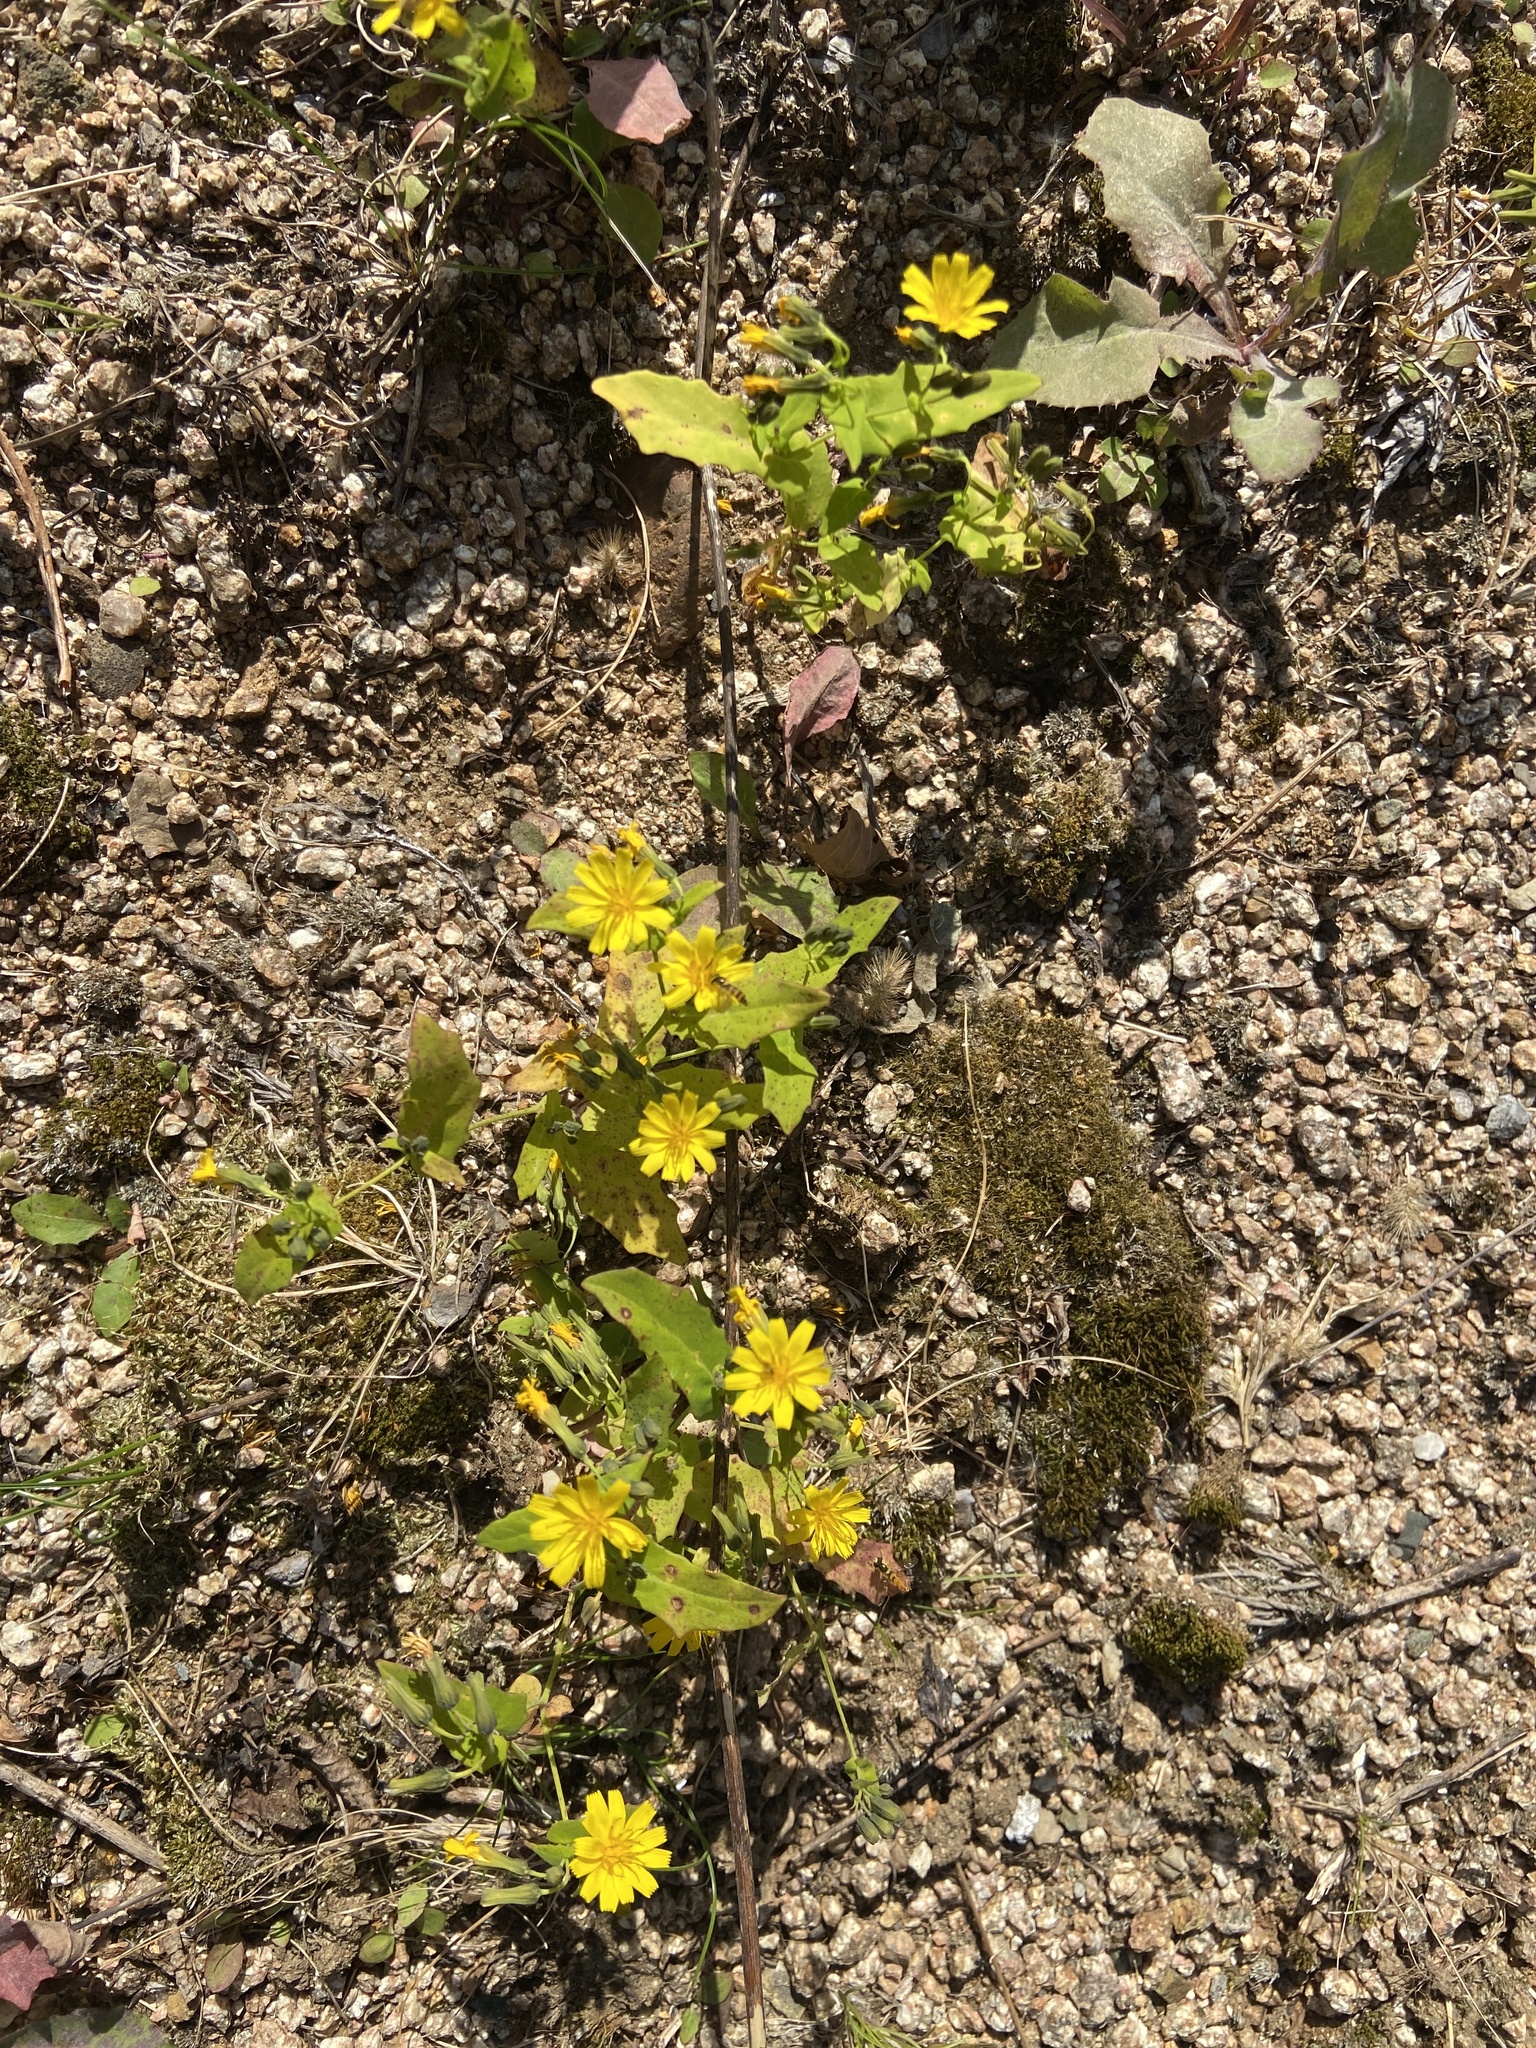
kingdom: Plantae
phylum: Tracheophyta
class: Magnoliopsida
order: Asterales
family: Asteraceae
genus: Crepidiastrum
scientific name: Crepidiastrum denticulatum
